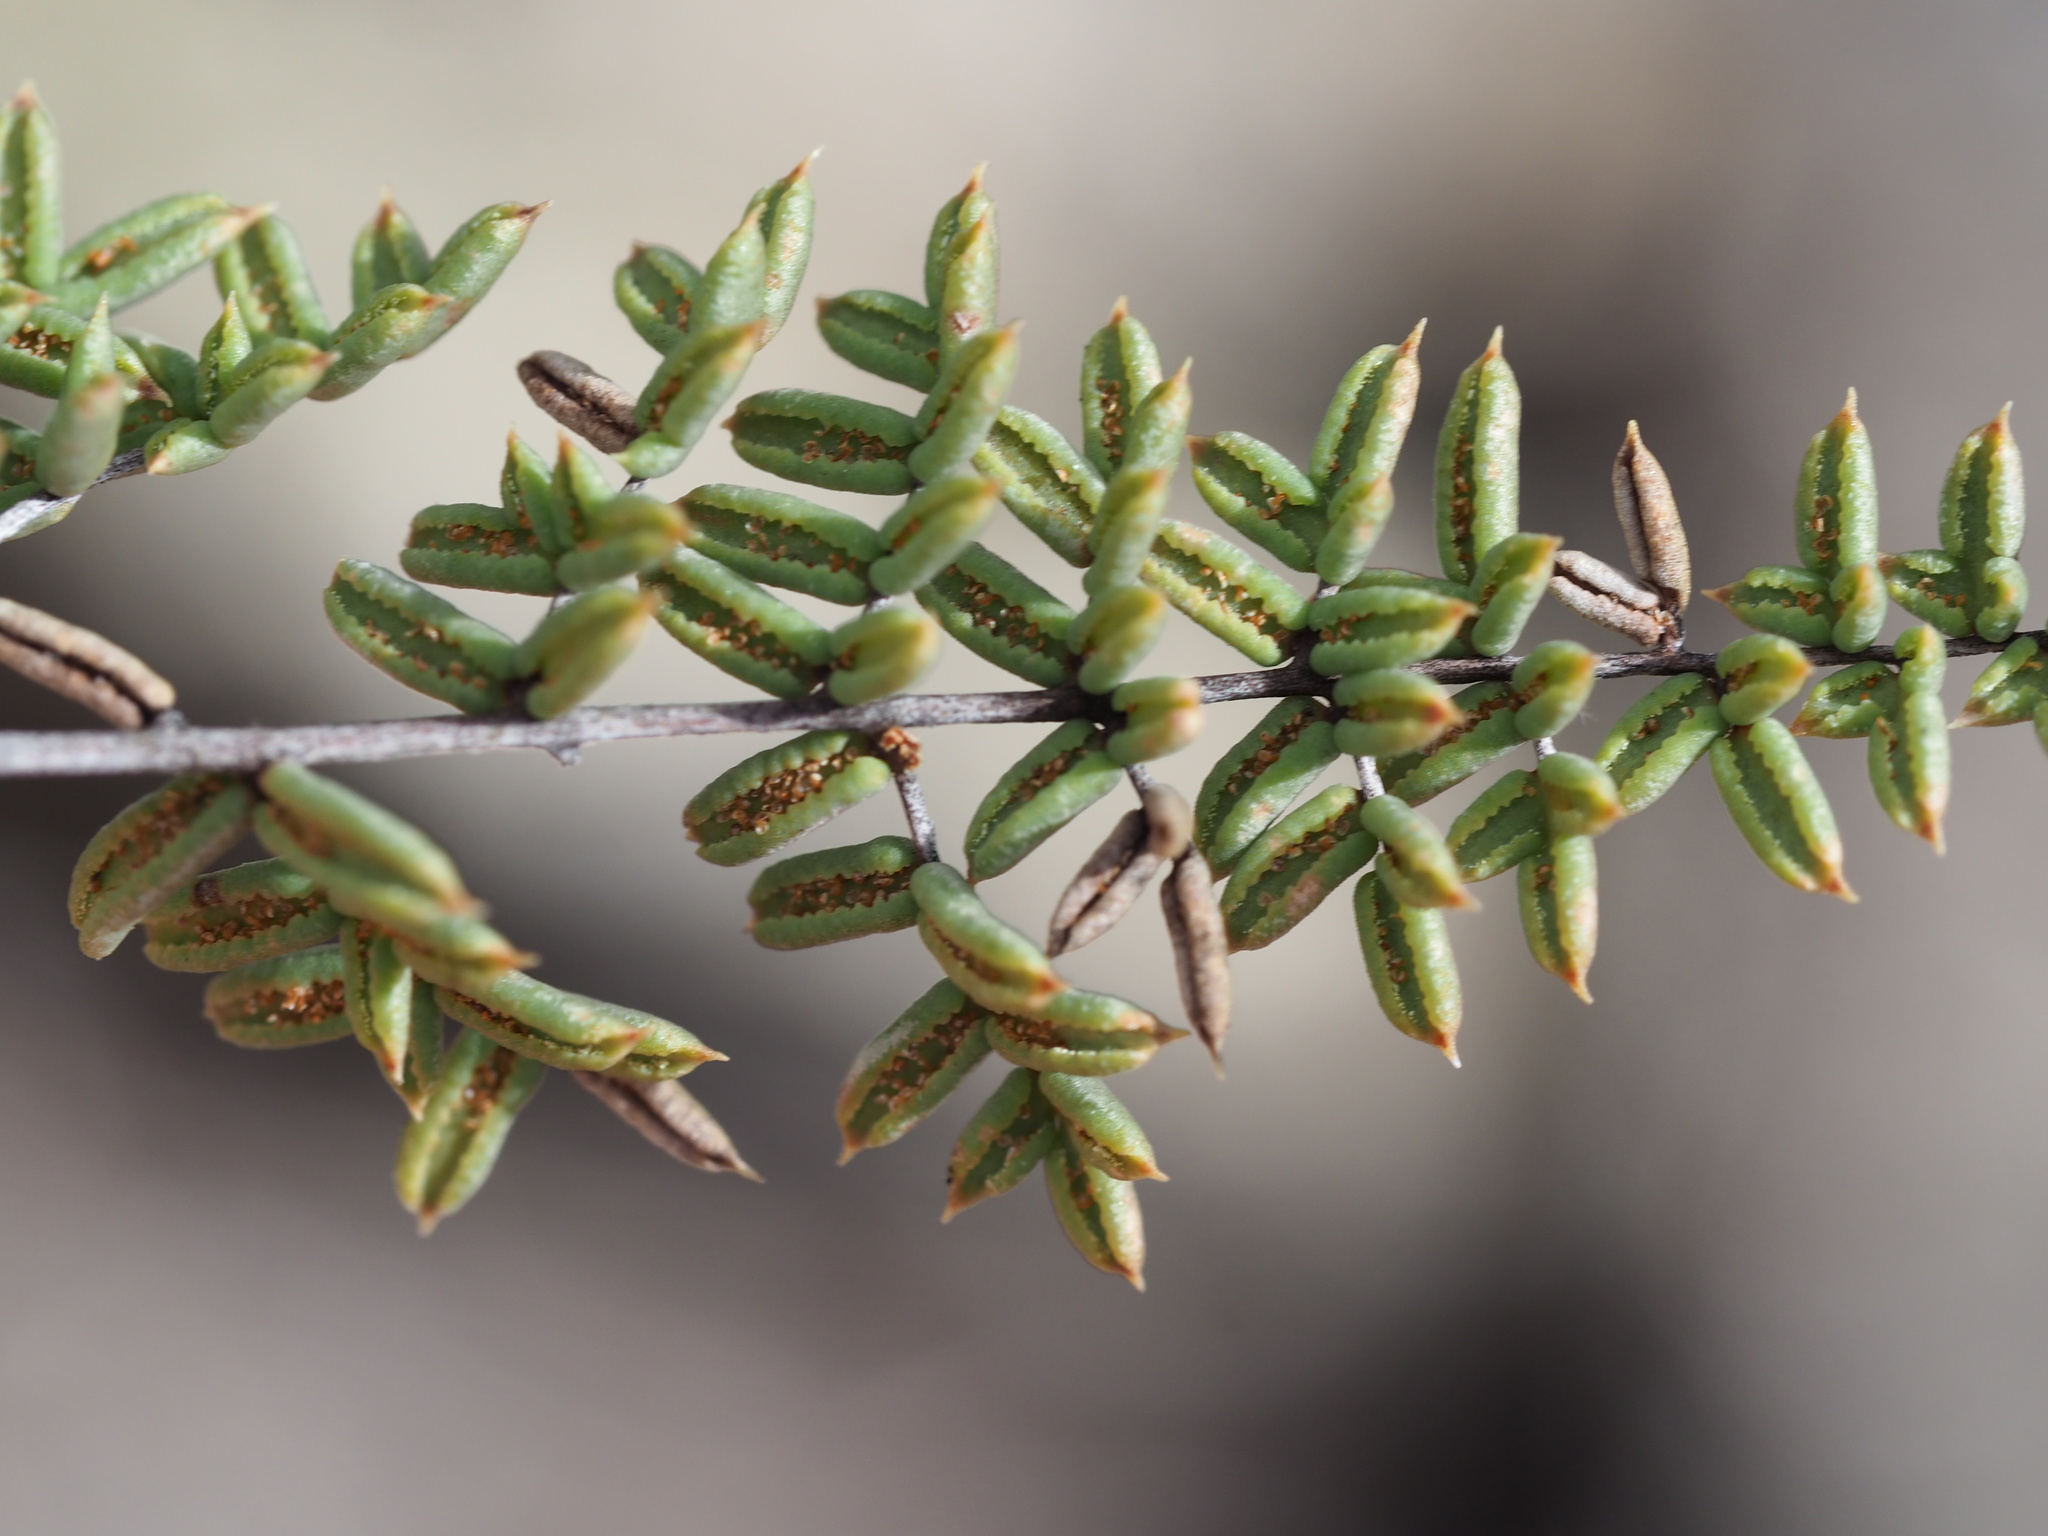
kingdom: Plantae
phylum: Tracheophyta
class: Polypodiopsida
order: Polypodiales
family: Pteridaceae
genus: Pellaea
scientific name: Pellaea mucronata
